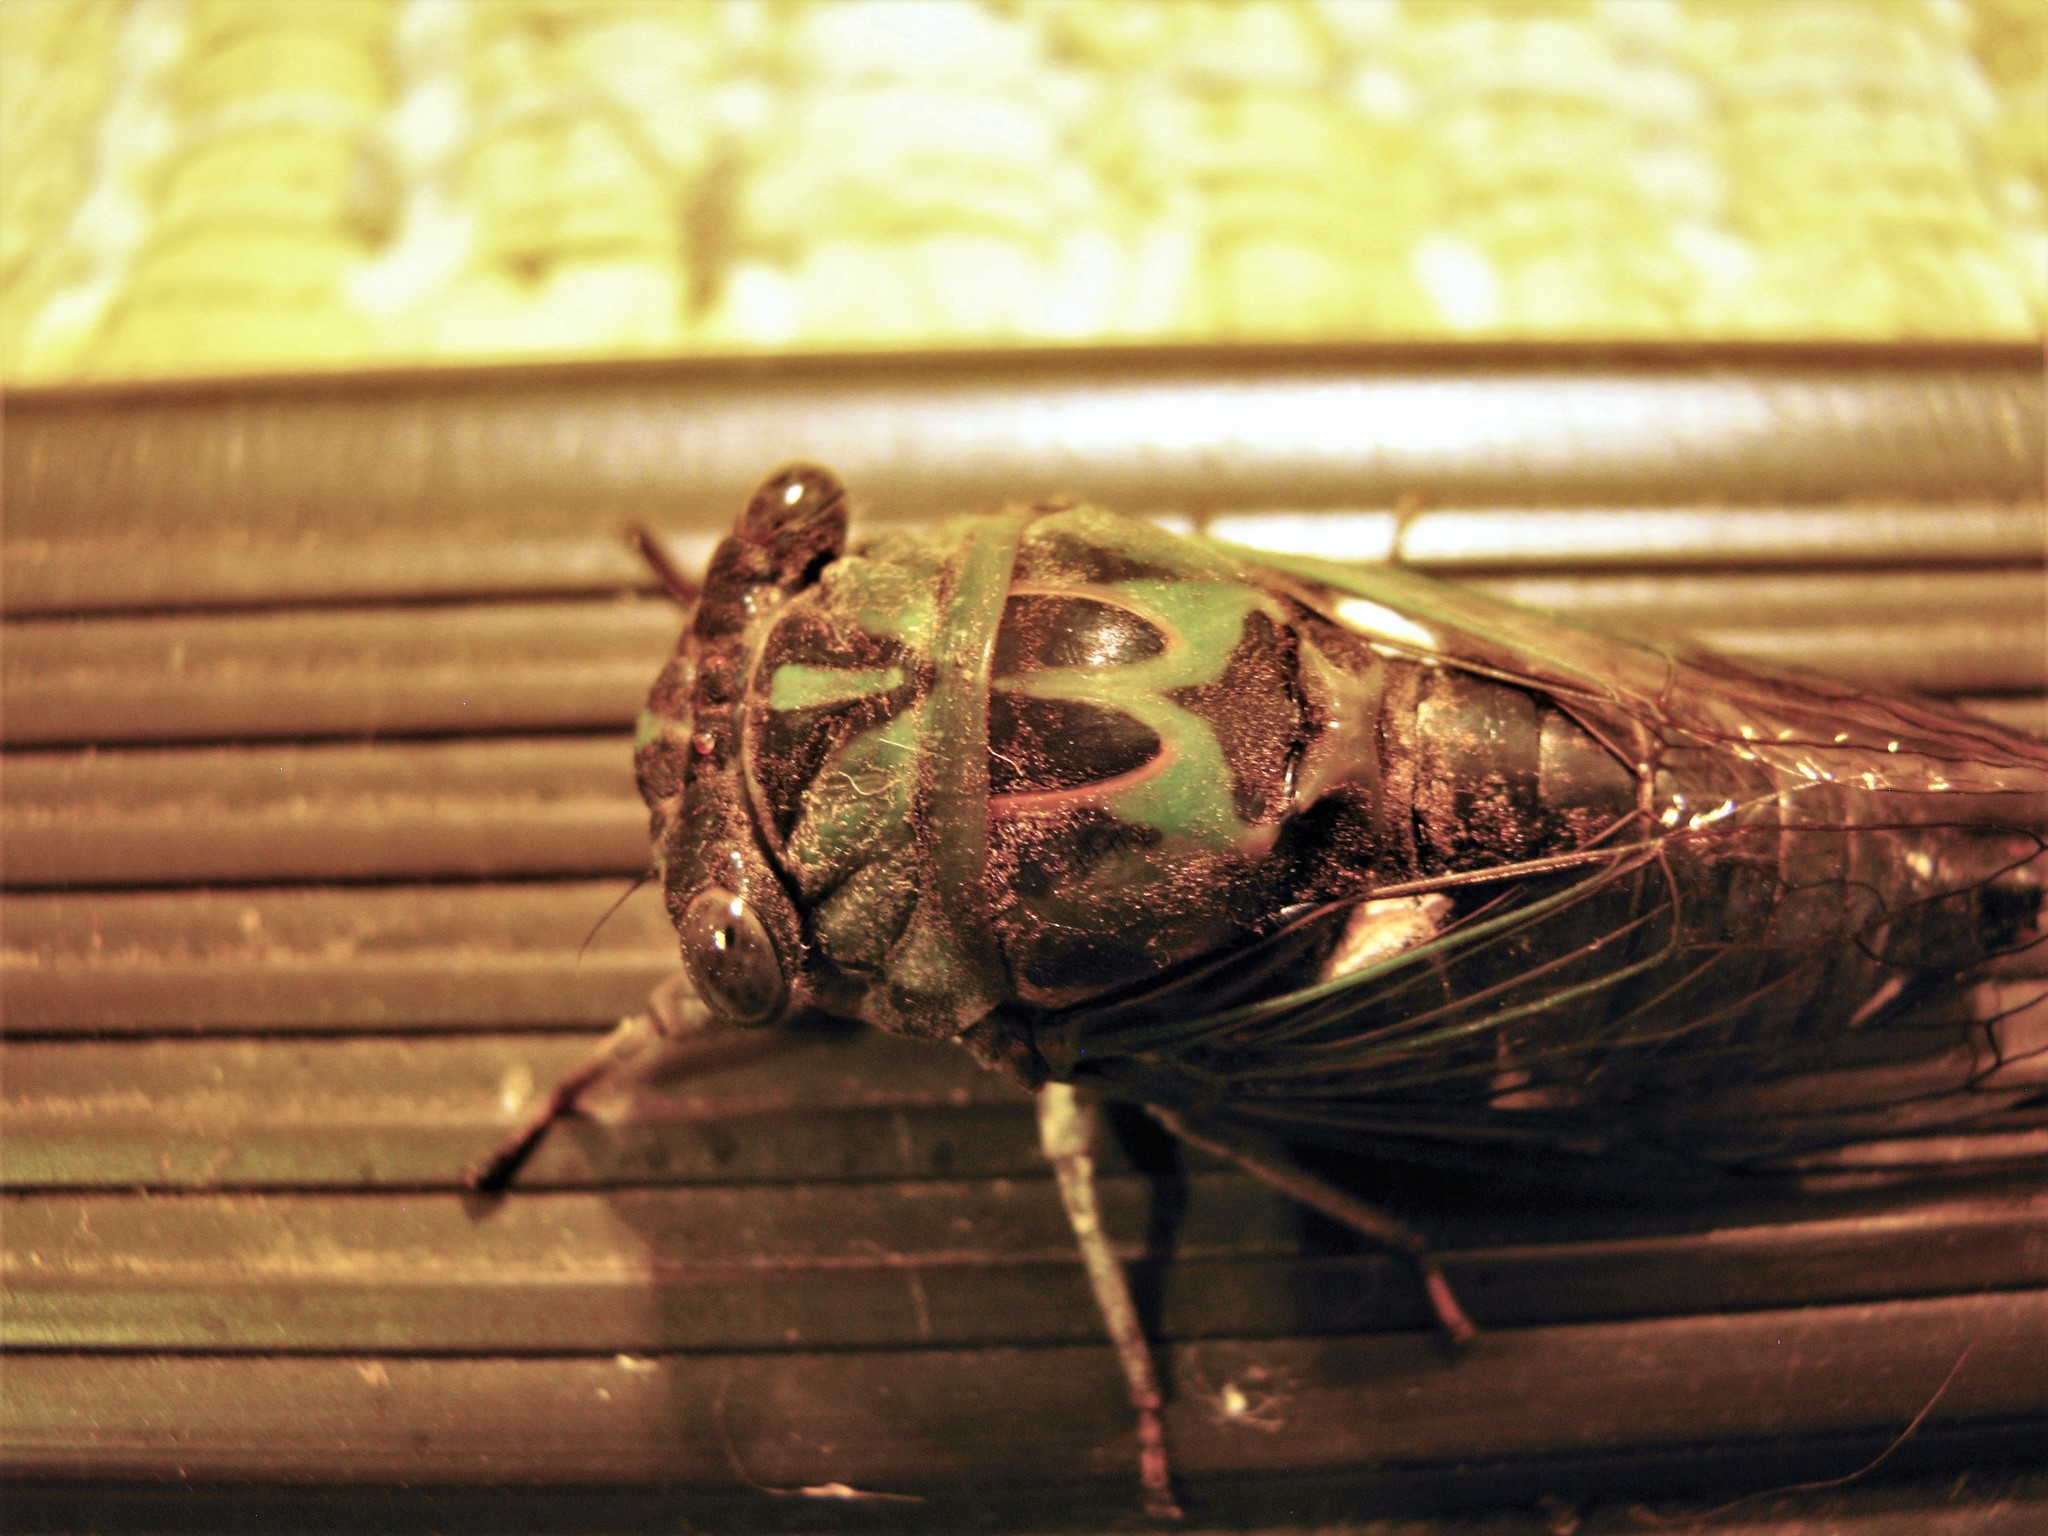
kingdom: Animalia
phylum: Arthropoda
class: Insecta
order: Hemiptera
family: Cicadidae
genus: Neotibicen
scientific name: Neotibicen pruinosus
